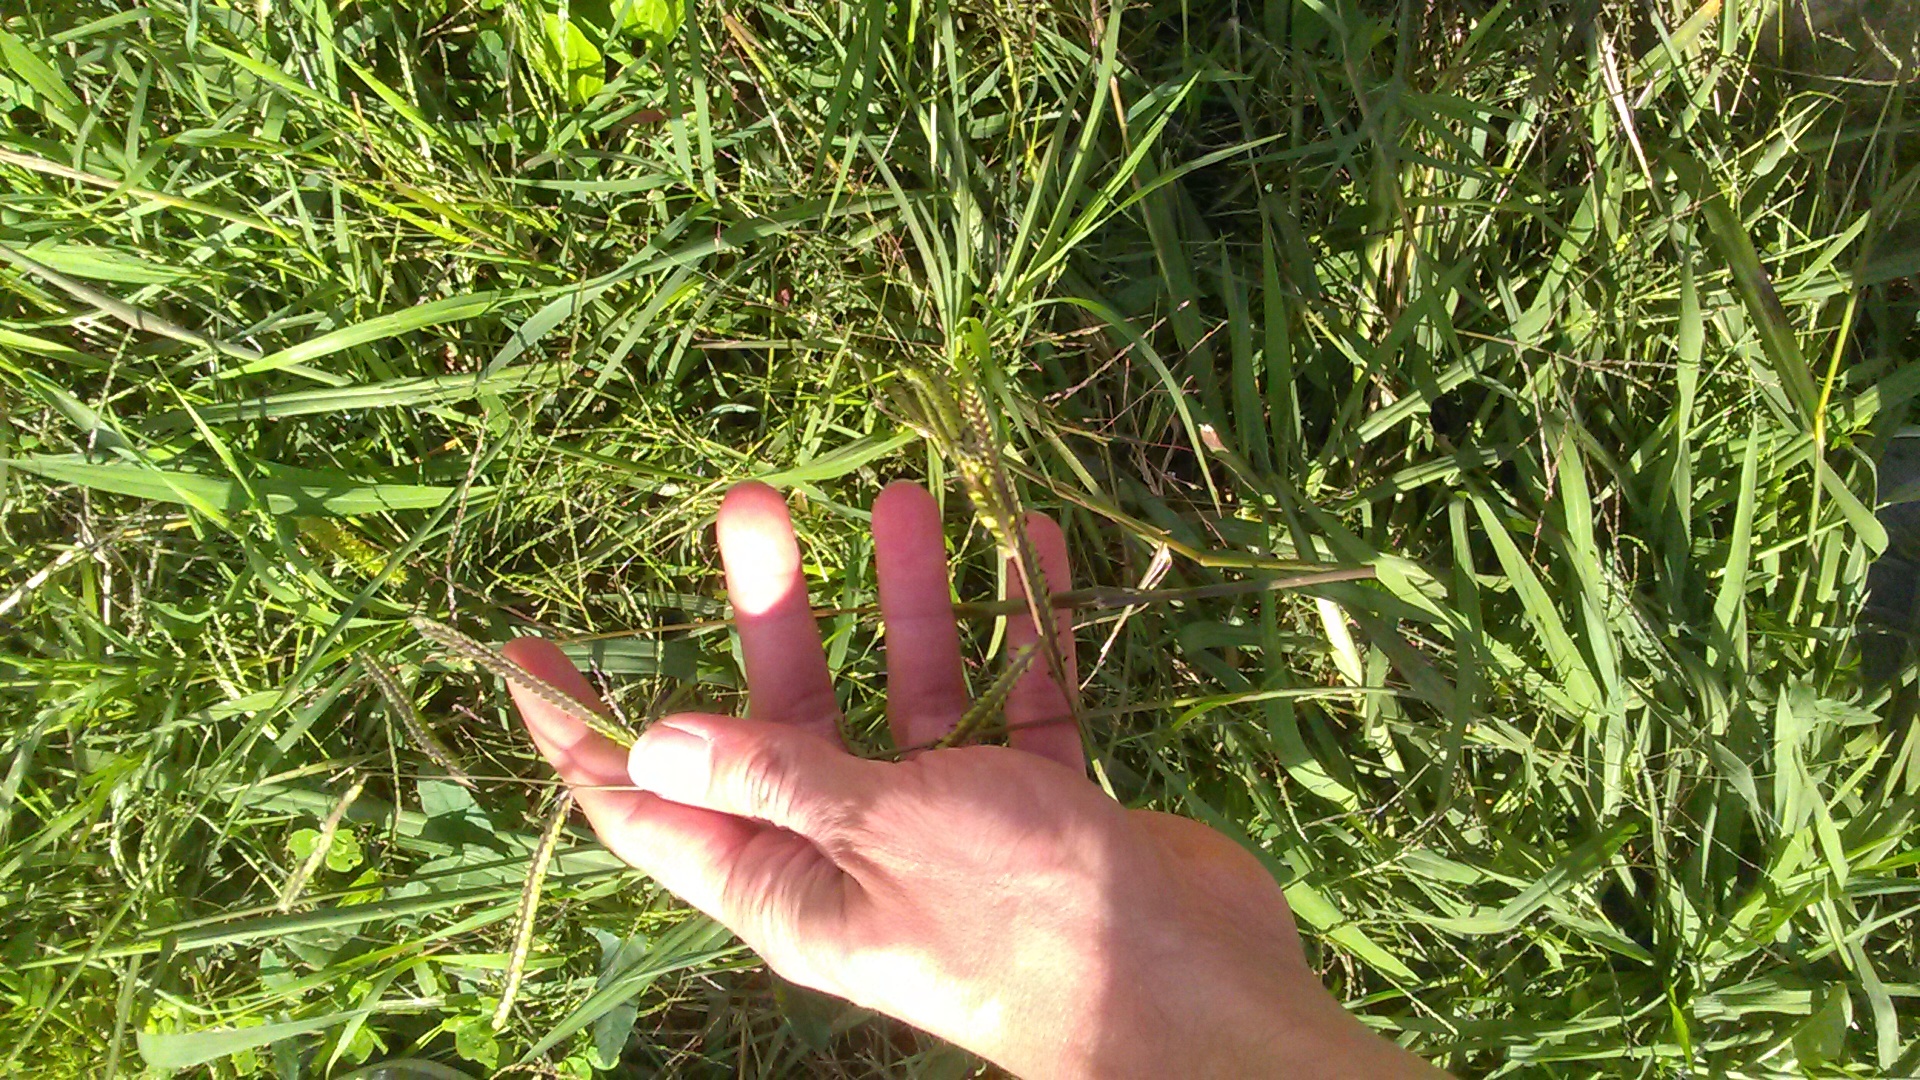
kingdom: Plantae
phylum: Tracheophyta
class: Liliopsida
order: Poales
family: Poaceae
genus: Paspalum
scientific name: Paspalum dilatatum
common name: Dallisgrass
